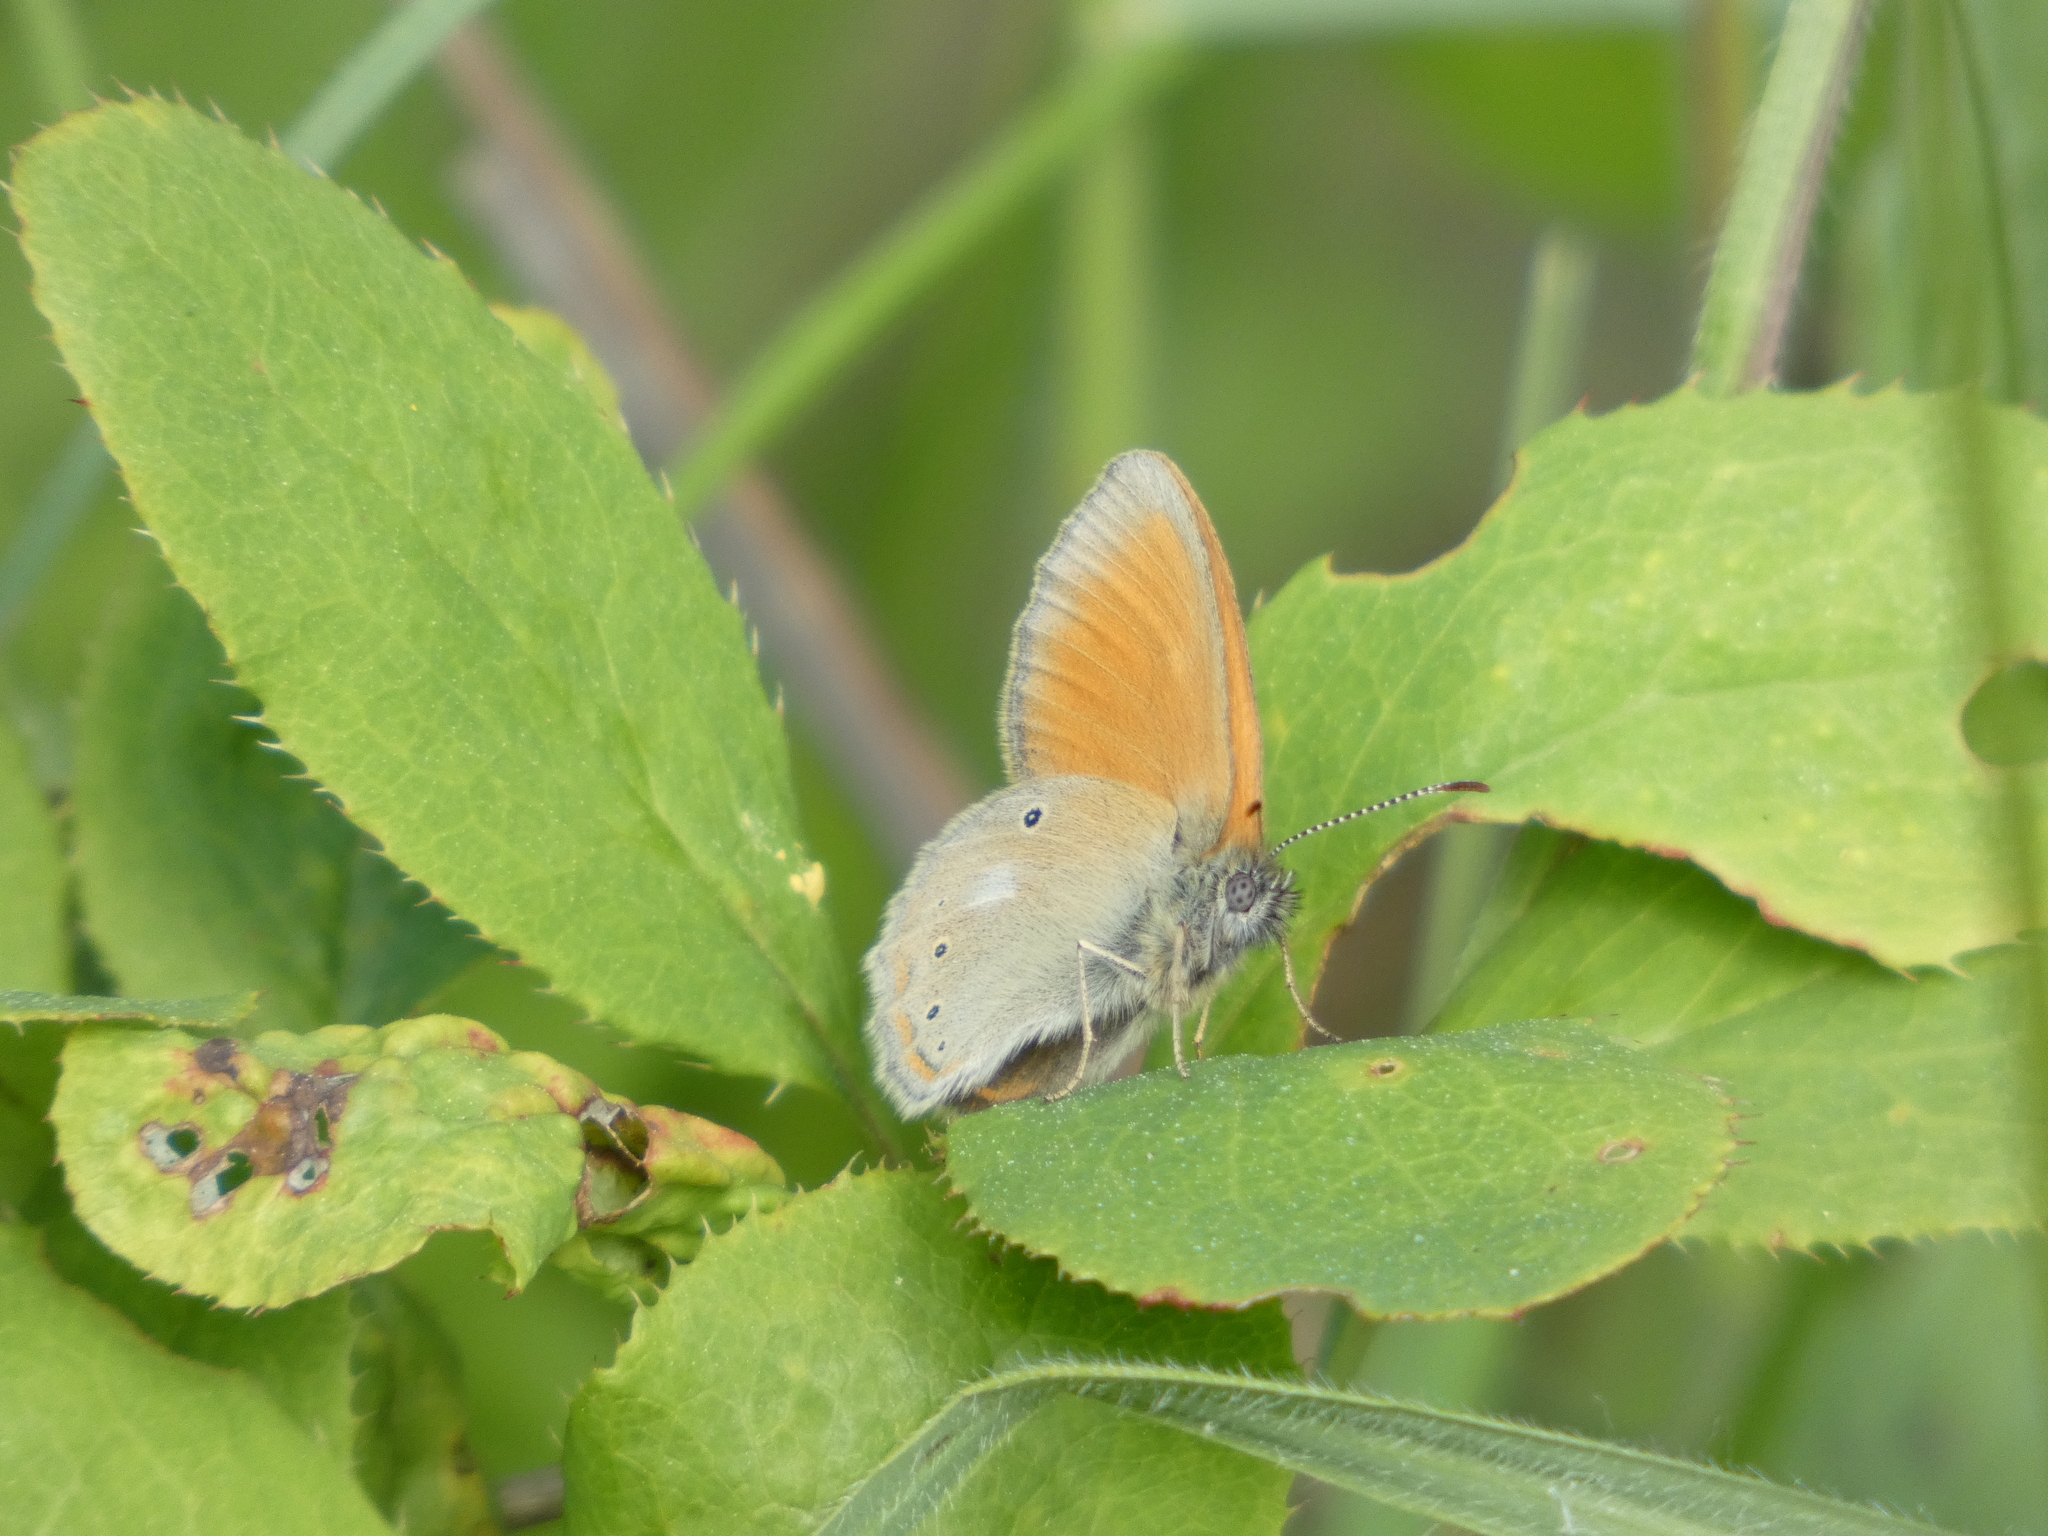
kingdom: Animalia
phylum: Arthropoda
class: Insecta
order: Lepidoptera
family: Nymphalidae
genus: Coenonympha
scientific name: Coenonympha iphis
